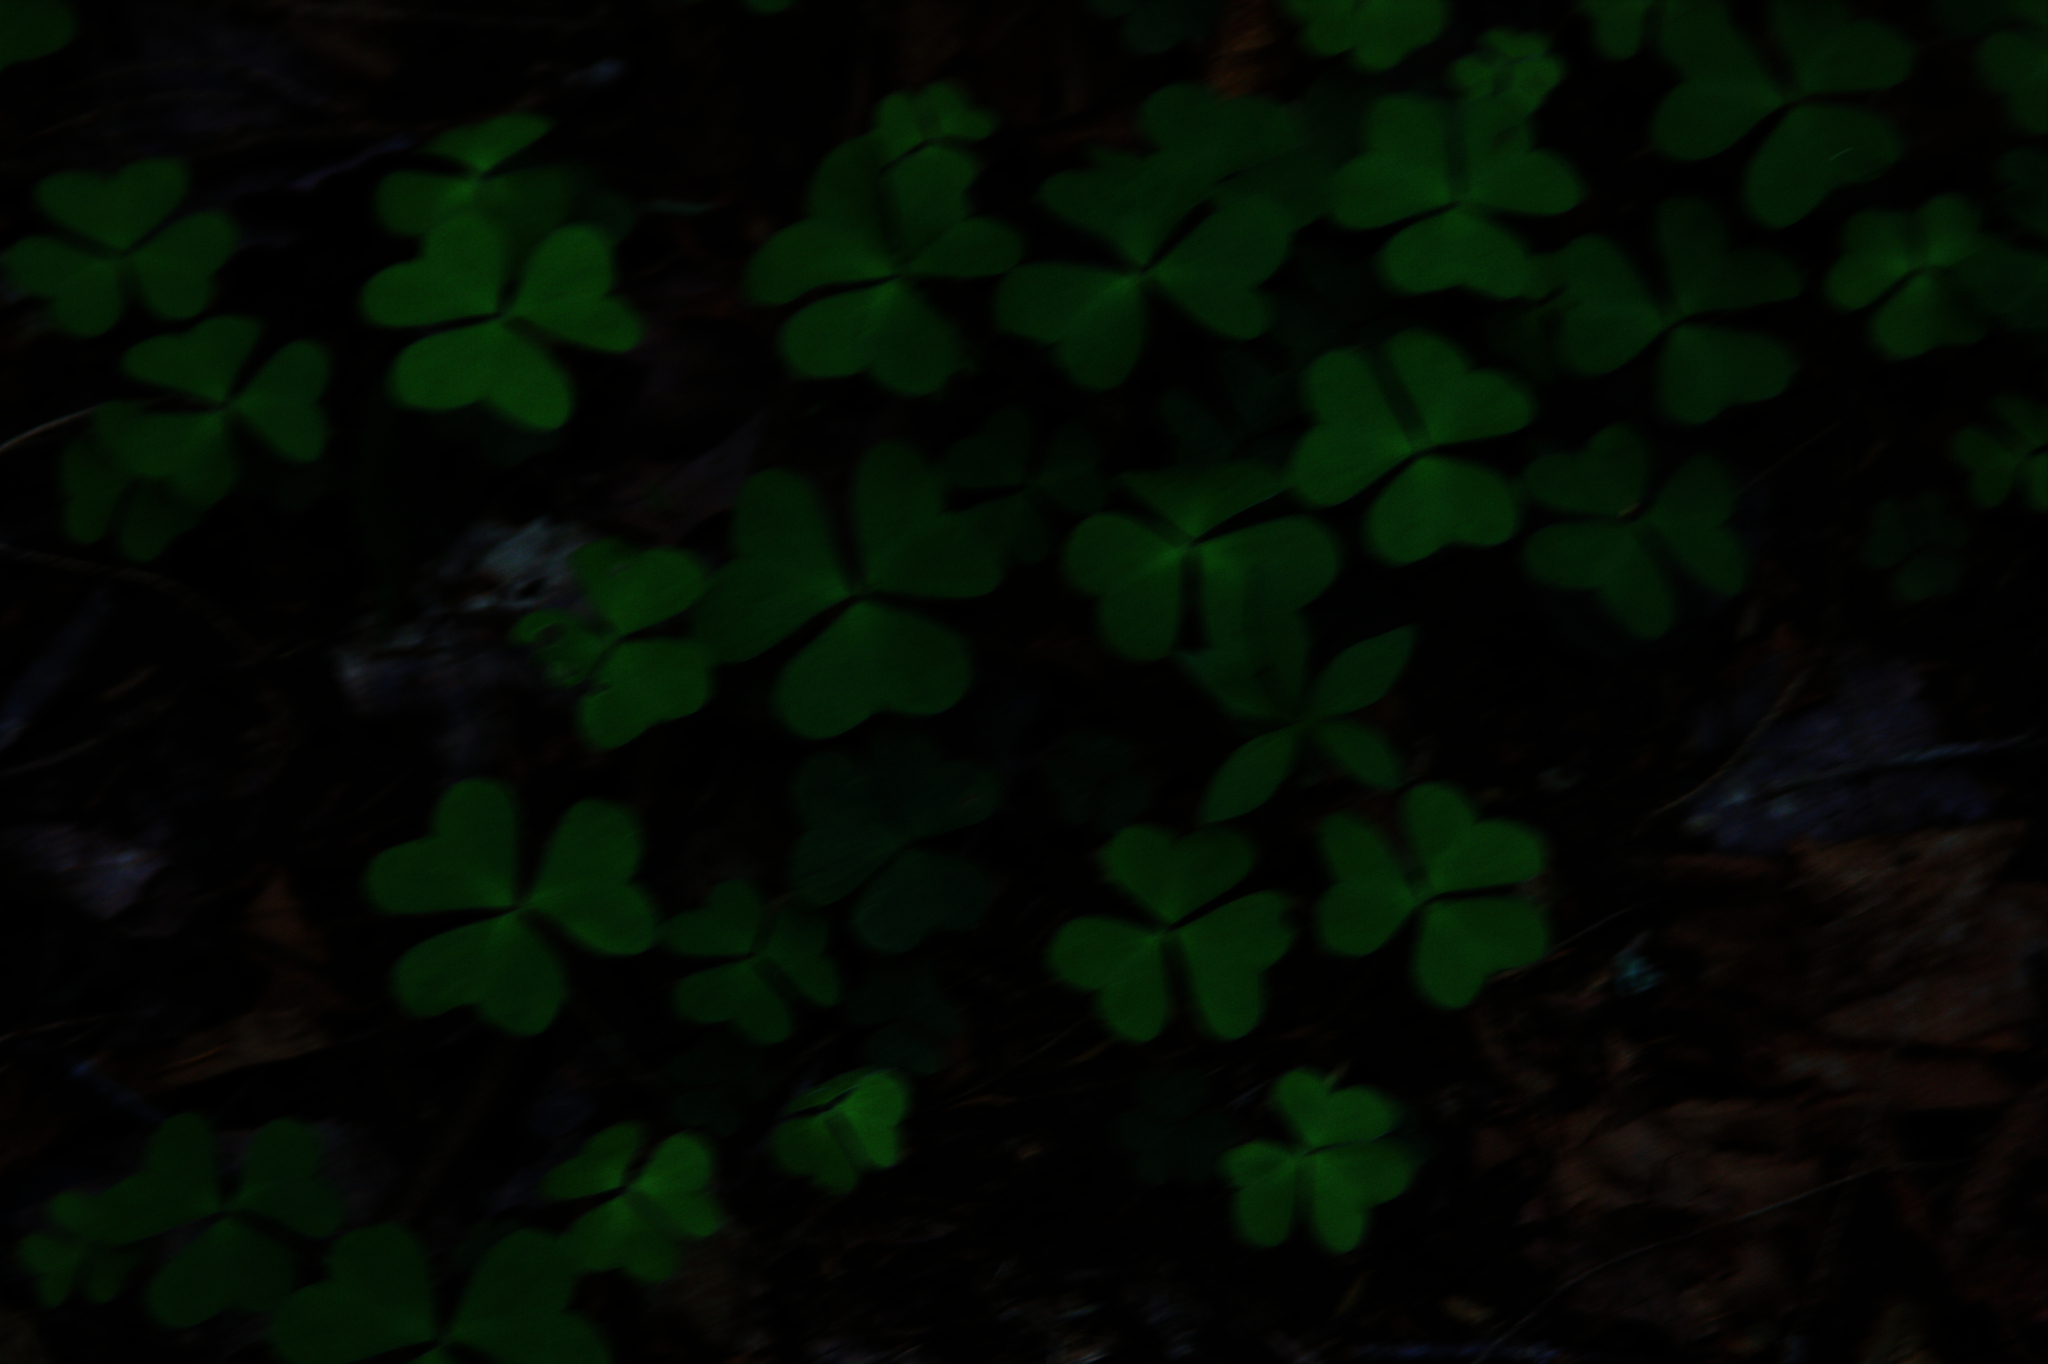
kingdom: Plantae
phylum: Tracheophyta
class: Magnoliopsida
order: Oxalidales
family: Oxalidaceae
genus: Oxalis
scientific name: Oxalis montana
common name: American wood-sorrel
